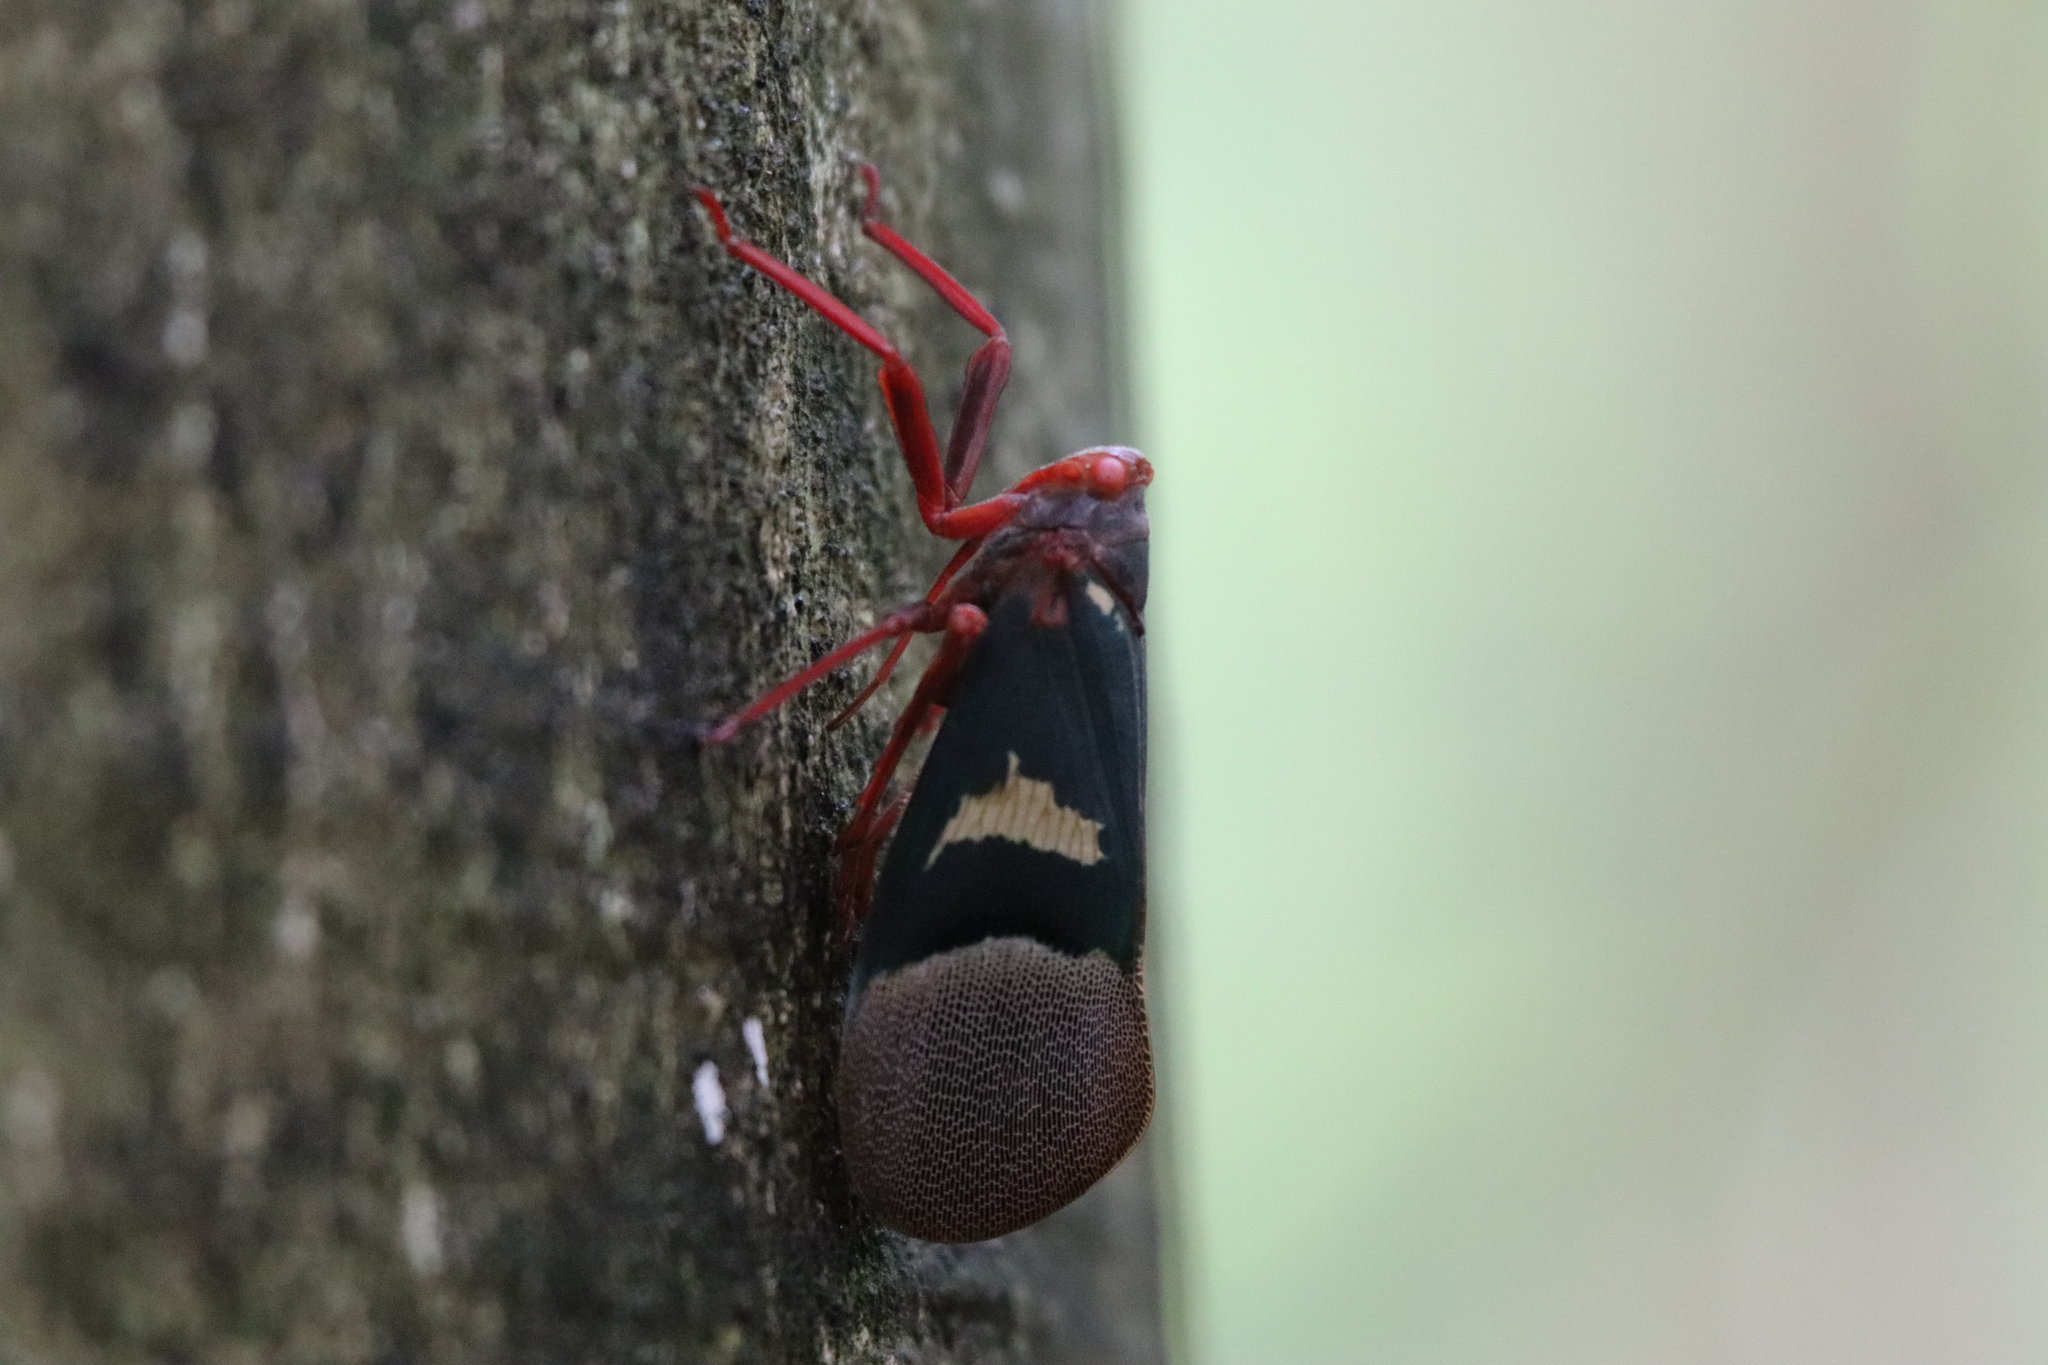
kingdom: Animalia
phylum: Arthropoda
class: Insecta
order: Hemiptera
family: Fulgoridae
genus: Scamandra
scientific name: Scamandra thetis
